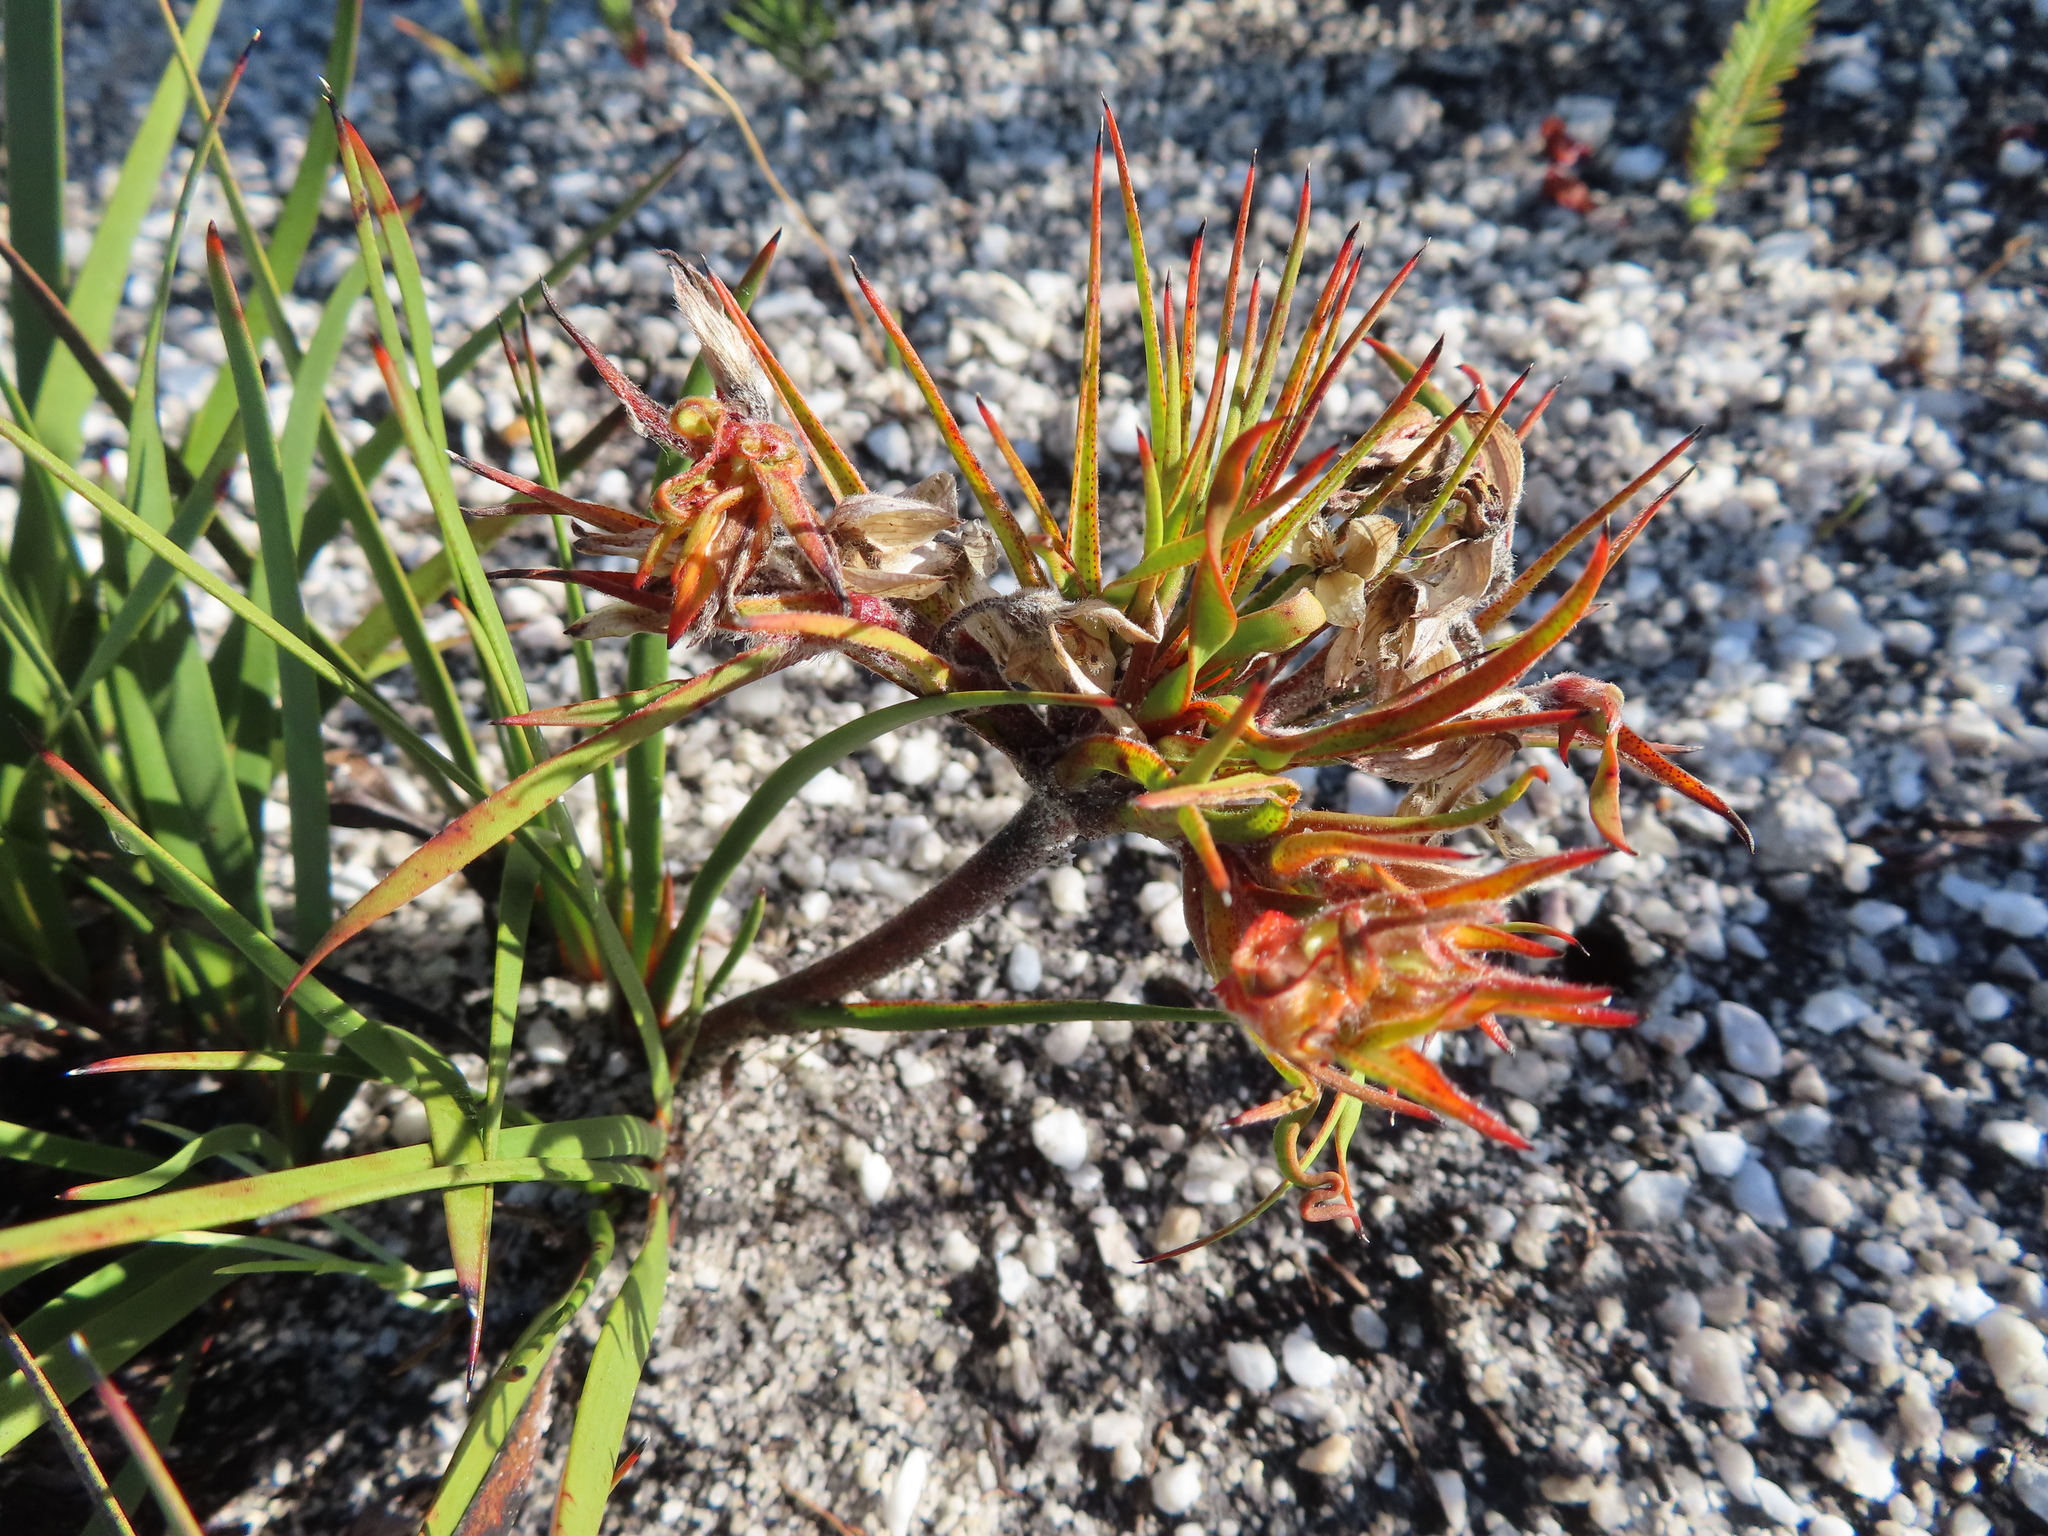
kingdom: Plantae
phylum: Tracheophyta
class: Liliopsida
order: Commelinales
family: Haemodoraceae
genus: Dilatris
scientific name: Dilatris pillansii
